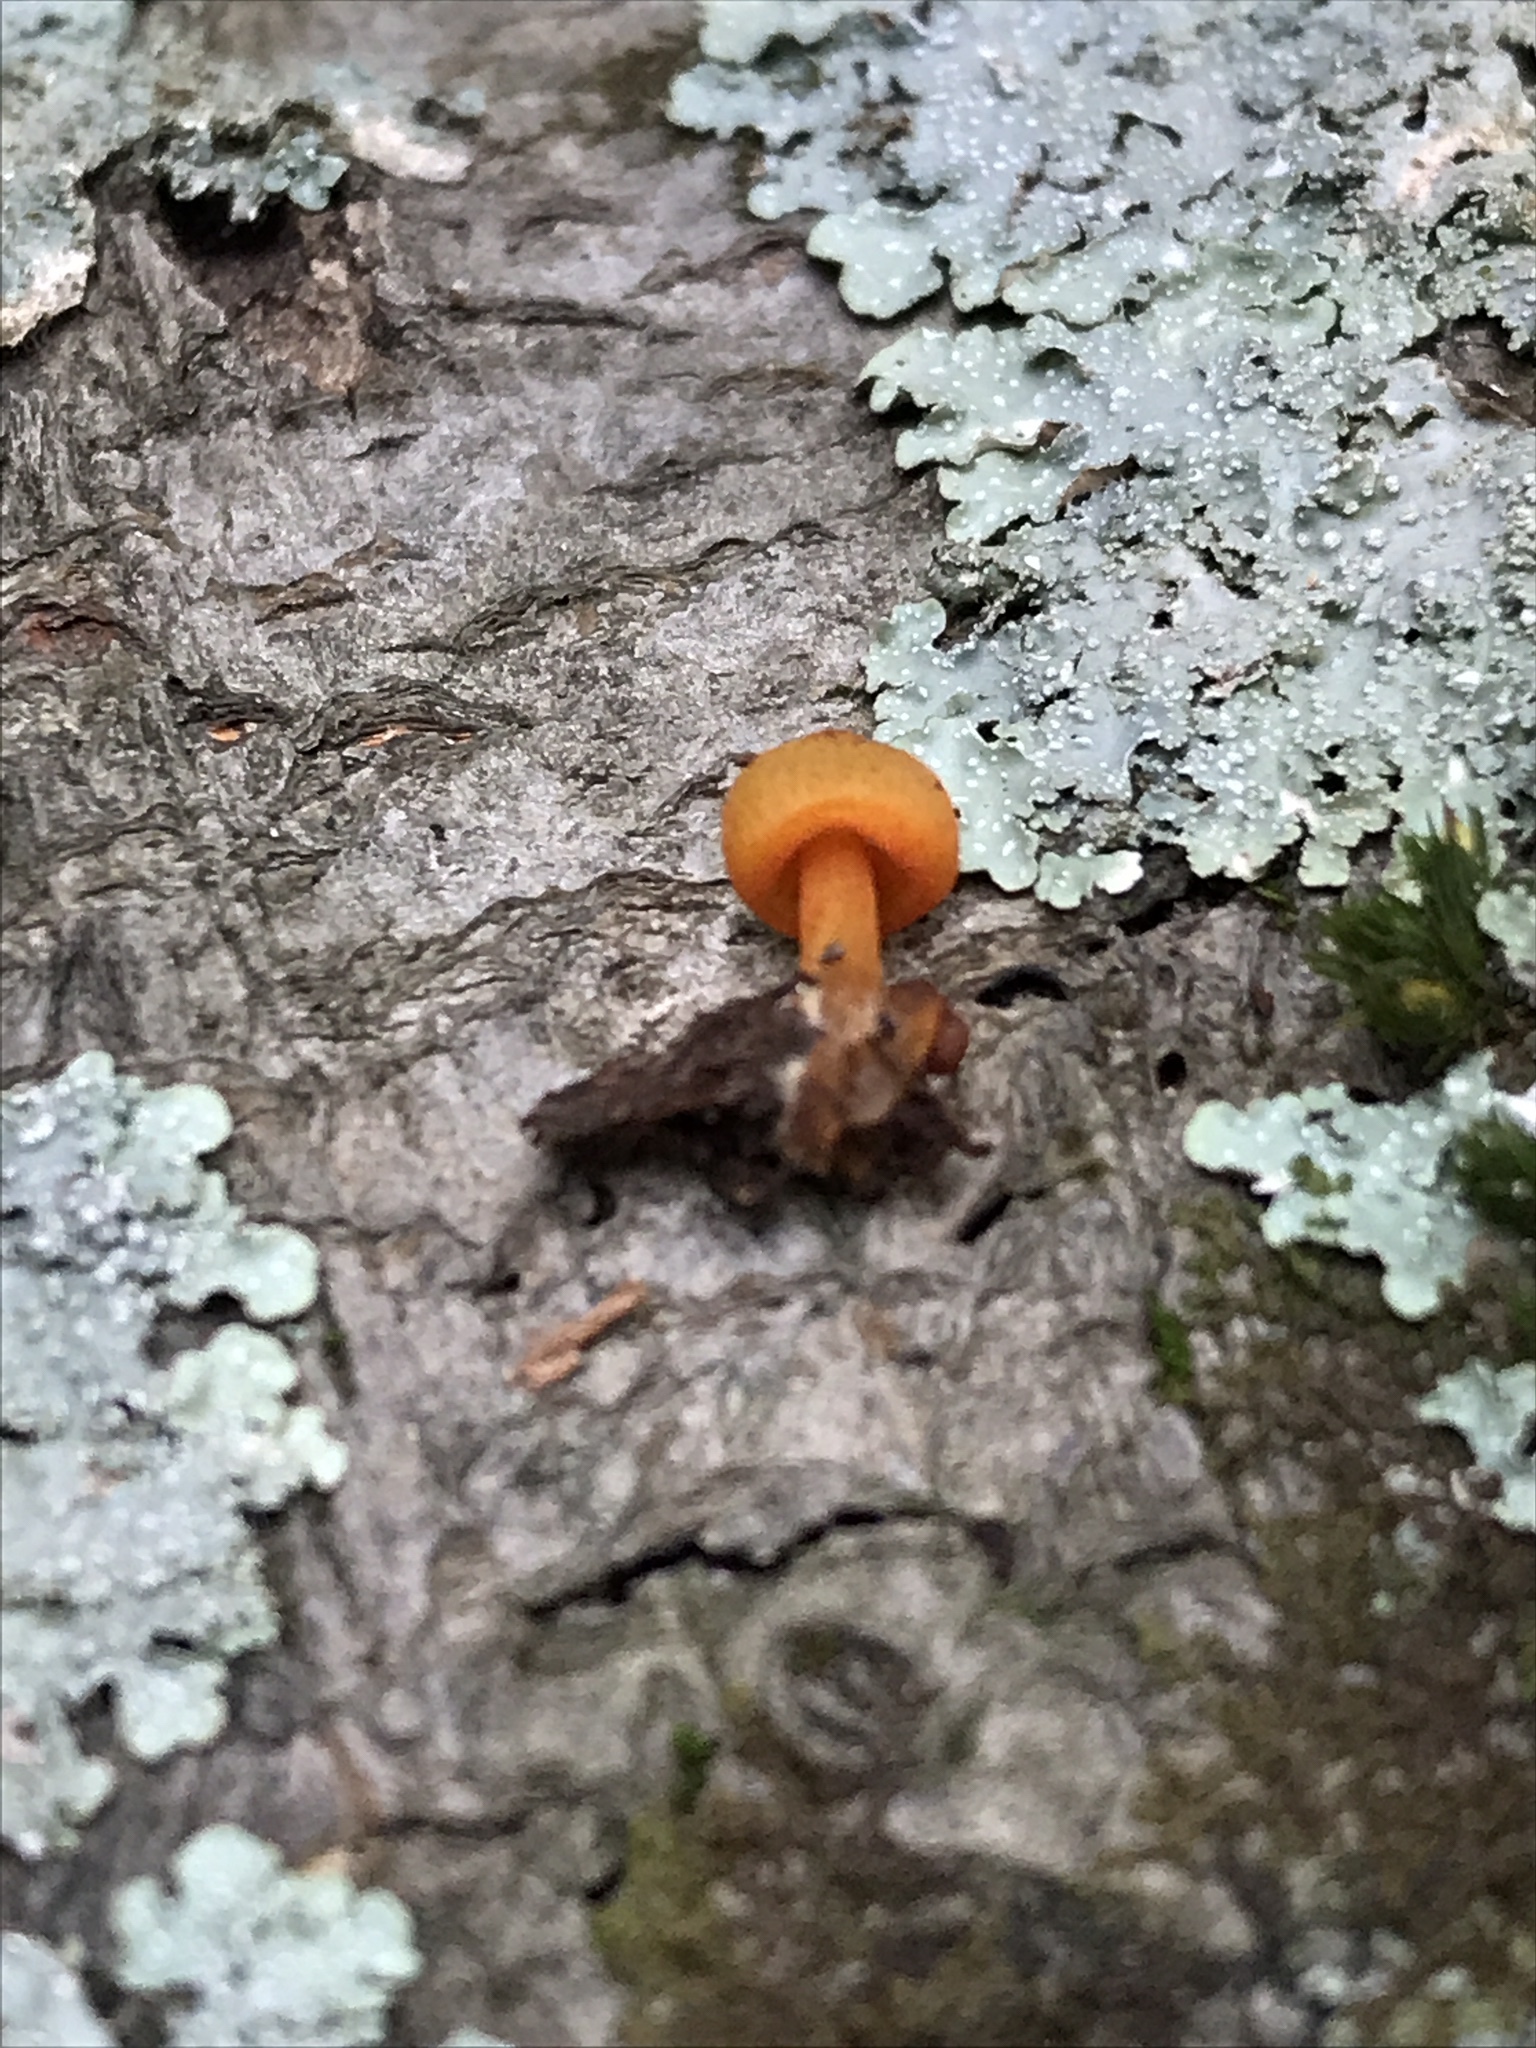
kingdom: Fungi
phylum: Basidiomycota
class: Agaricomycetes
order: Agaricales
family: Mycenaceae
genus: Mycena
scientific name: Mycena leaiana
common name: Orange mycena
